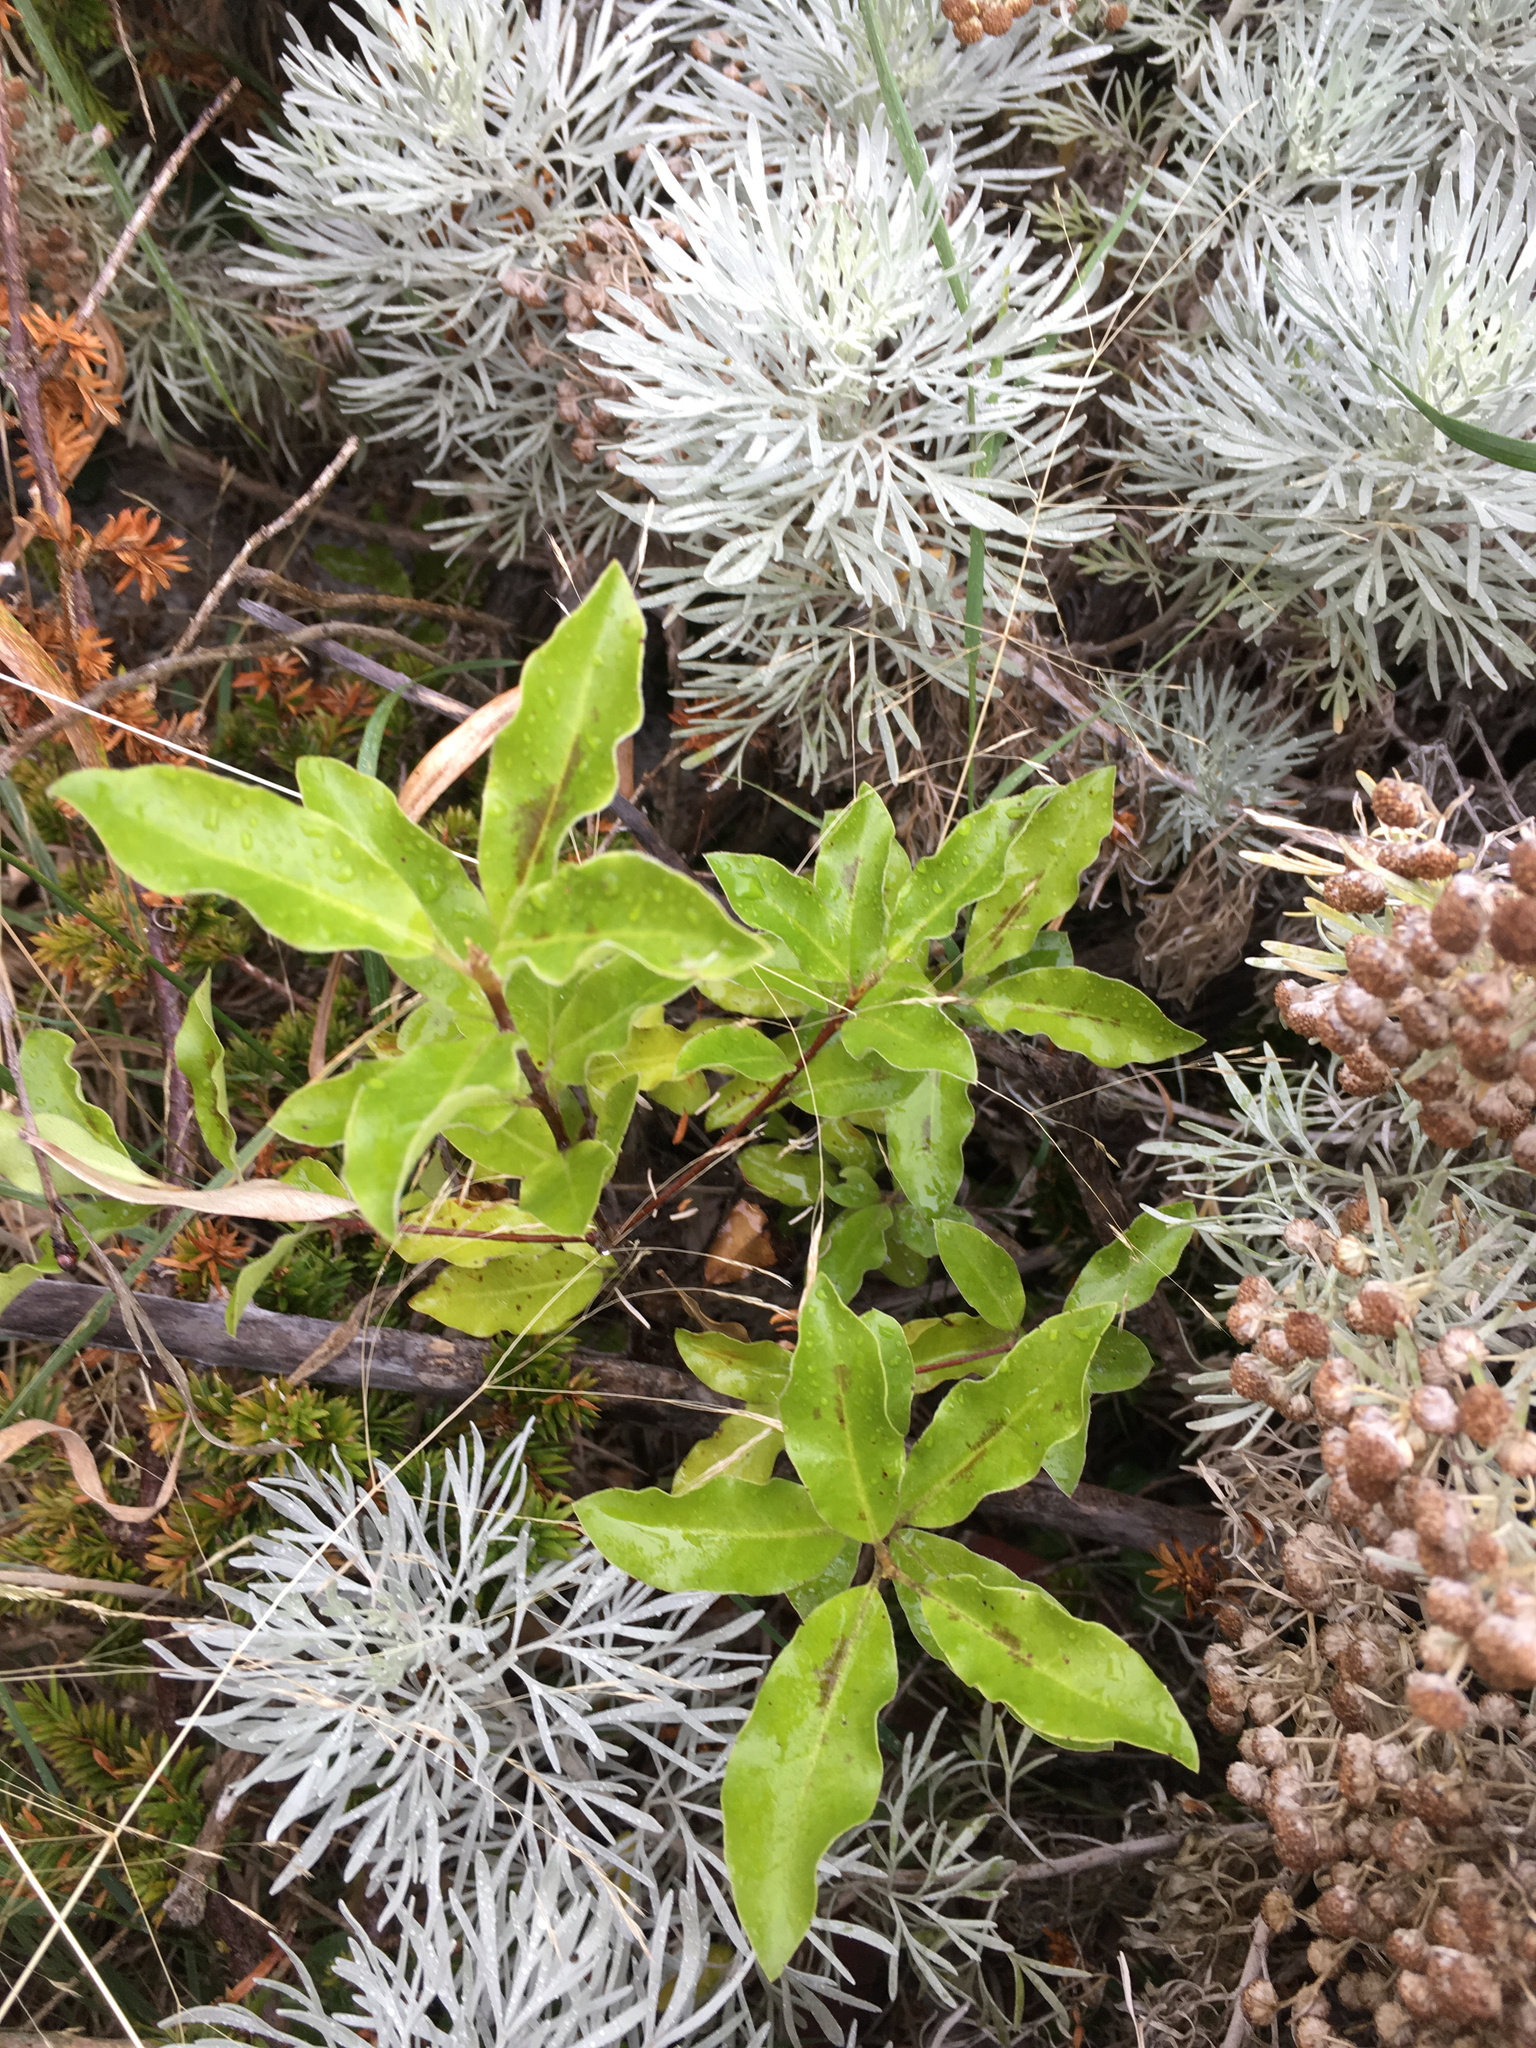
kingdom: Plantae
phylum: Tracheophyta
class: Magnoliopsida
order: Apiales
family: Pittosporaceae
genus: Pittosporum
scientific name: Pittosporum tenuifolium
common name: Kohuhu
